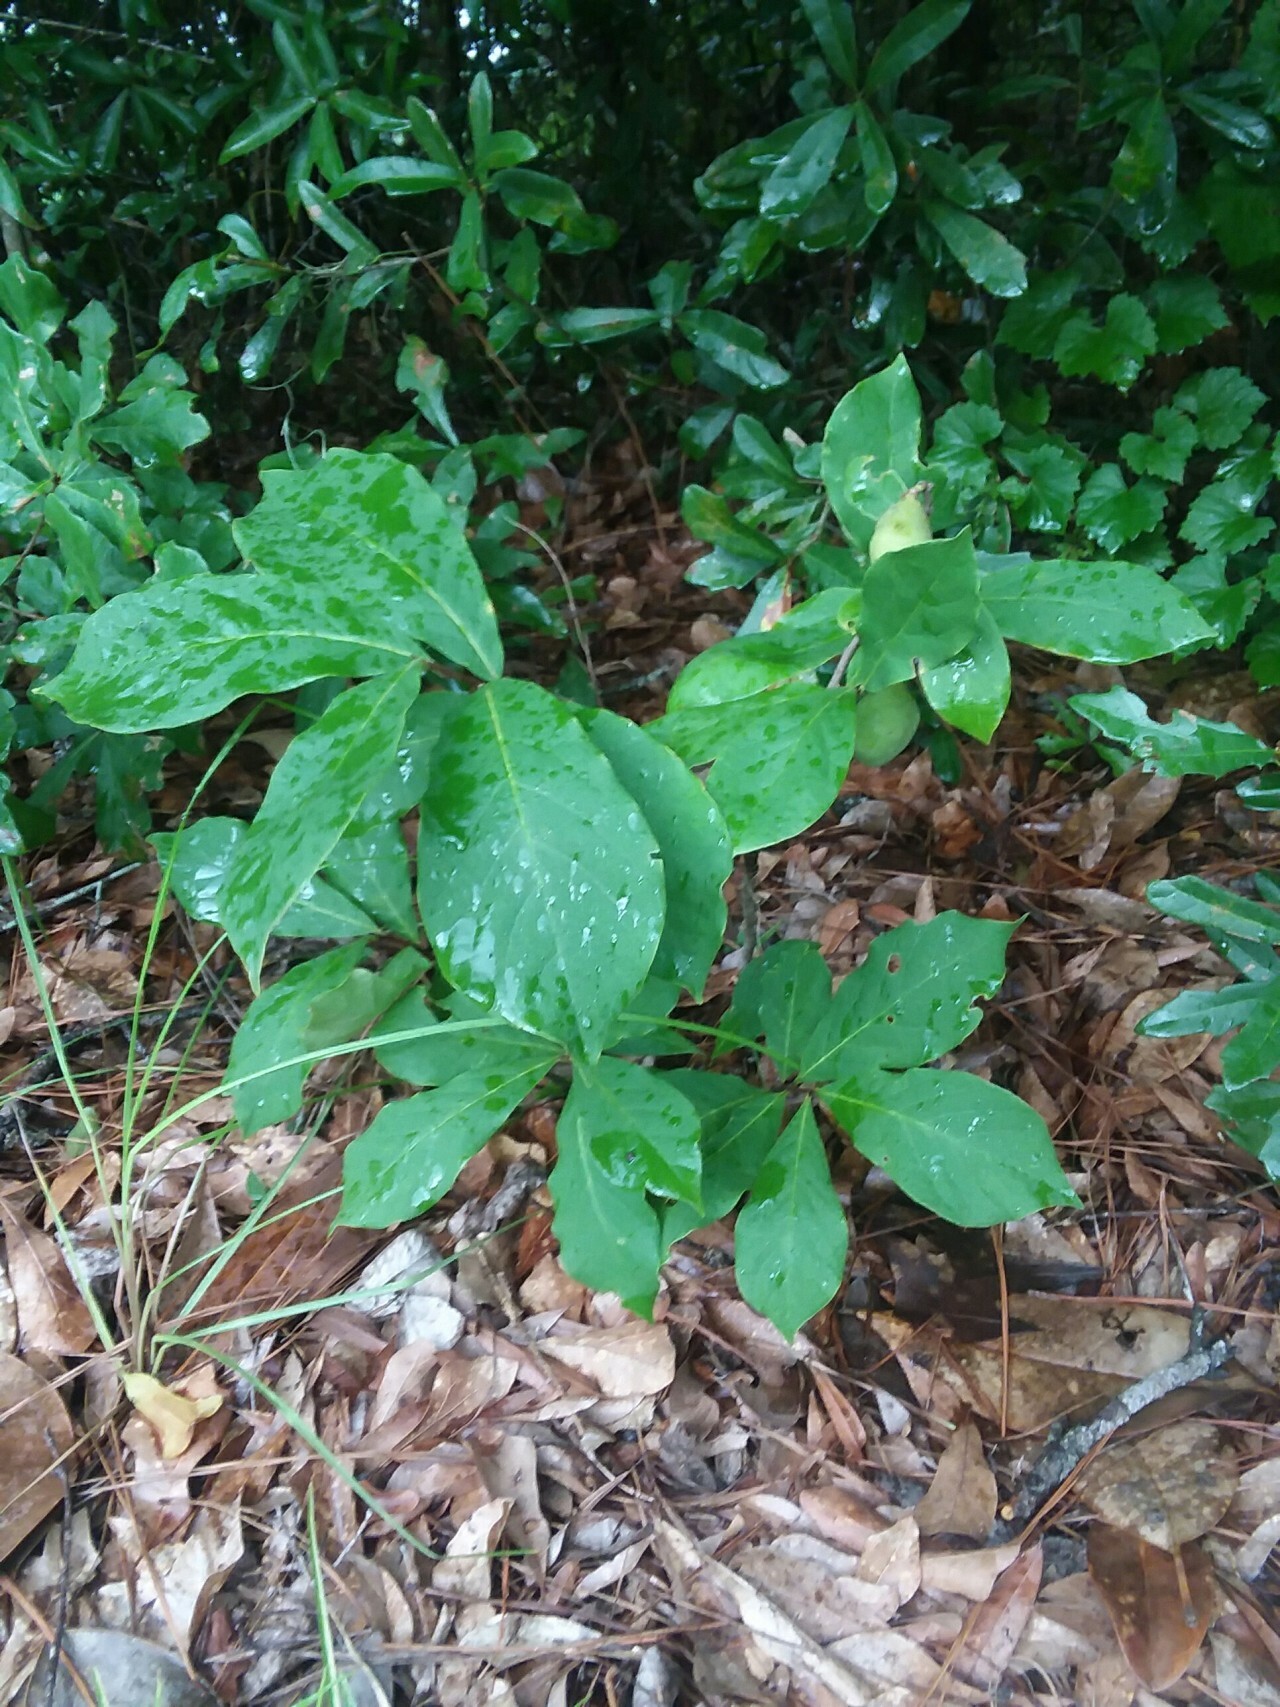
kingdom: Plantae
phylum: Tracheophyta
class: Magnoliopsida
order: Magnoliales
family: Annonaceae
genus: Asimina
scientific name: Asimina parviflora
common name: Dwarf pawpaw
